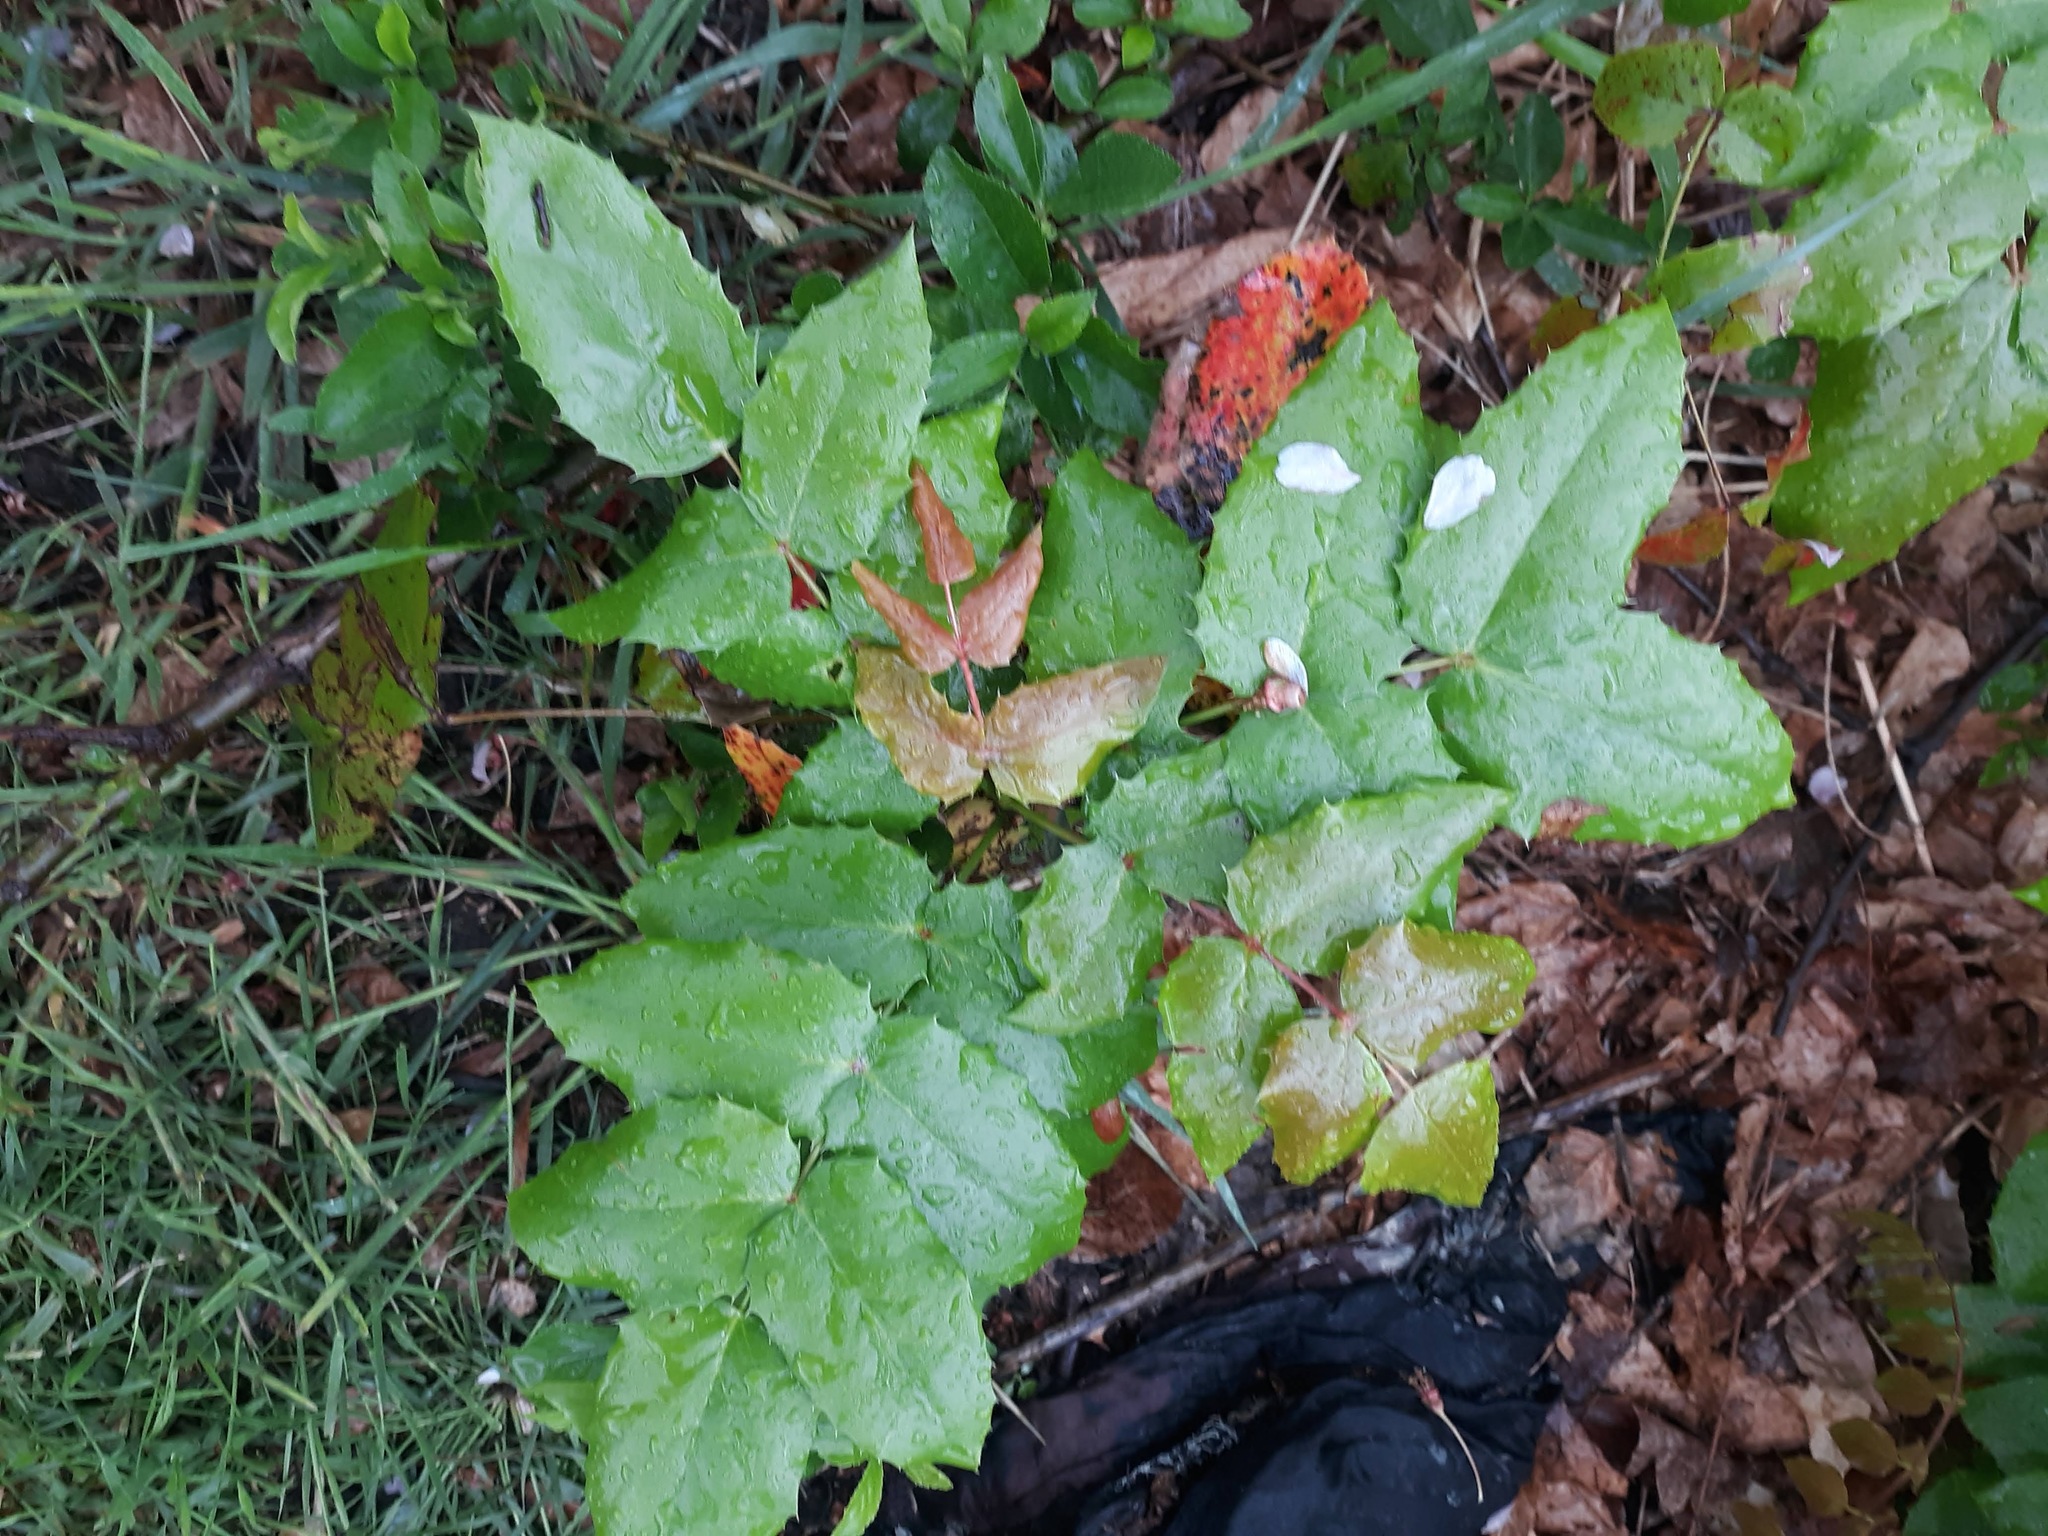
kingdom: Plantae
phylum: Tracheophyta
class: Magnoliopsida
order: Ranunculales
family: Berberidaceae
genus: Mahonia
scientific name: Mahonia aquifolium
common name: Oregon-grape
